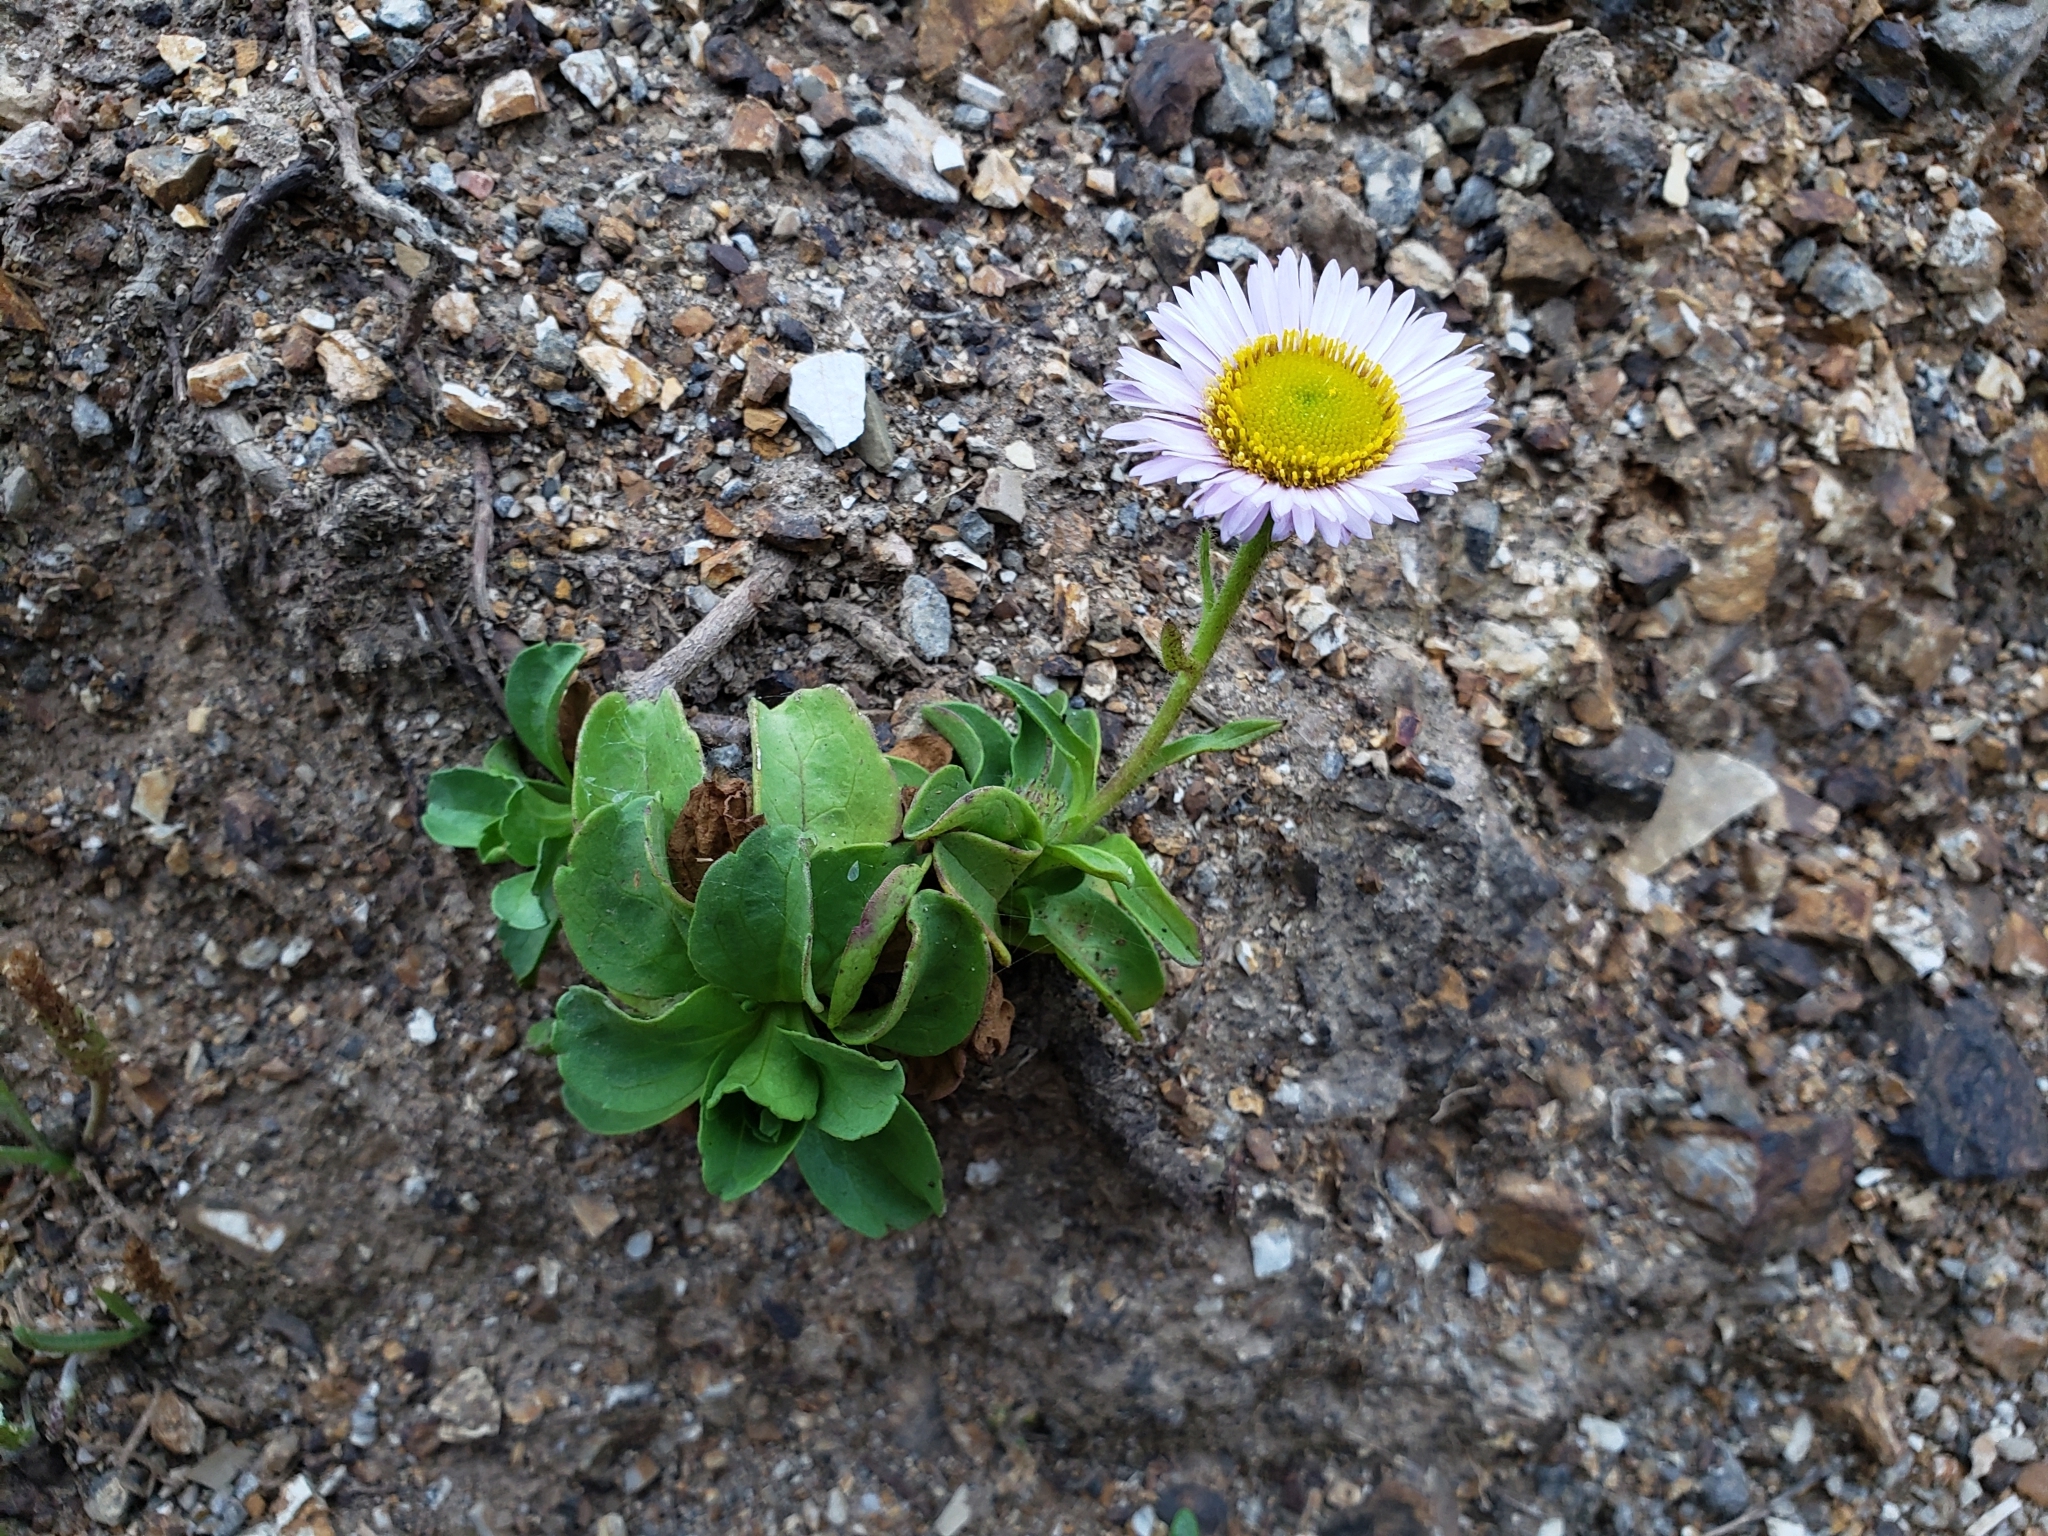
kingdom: Plantae
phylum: Tracheophyta
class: Magnoliopsida
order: Asterales
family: Asteraceae
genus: Erigeron
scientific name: Erigeron glaucus
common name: Seaside daisy
